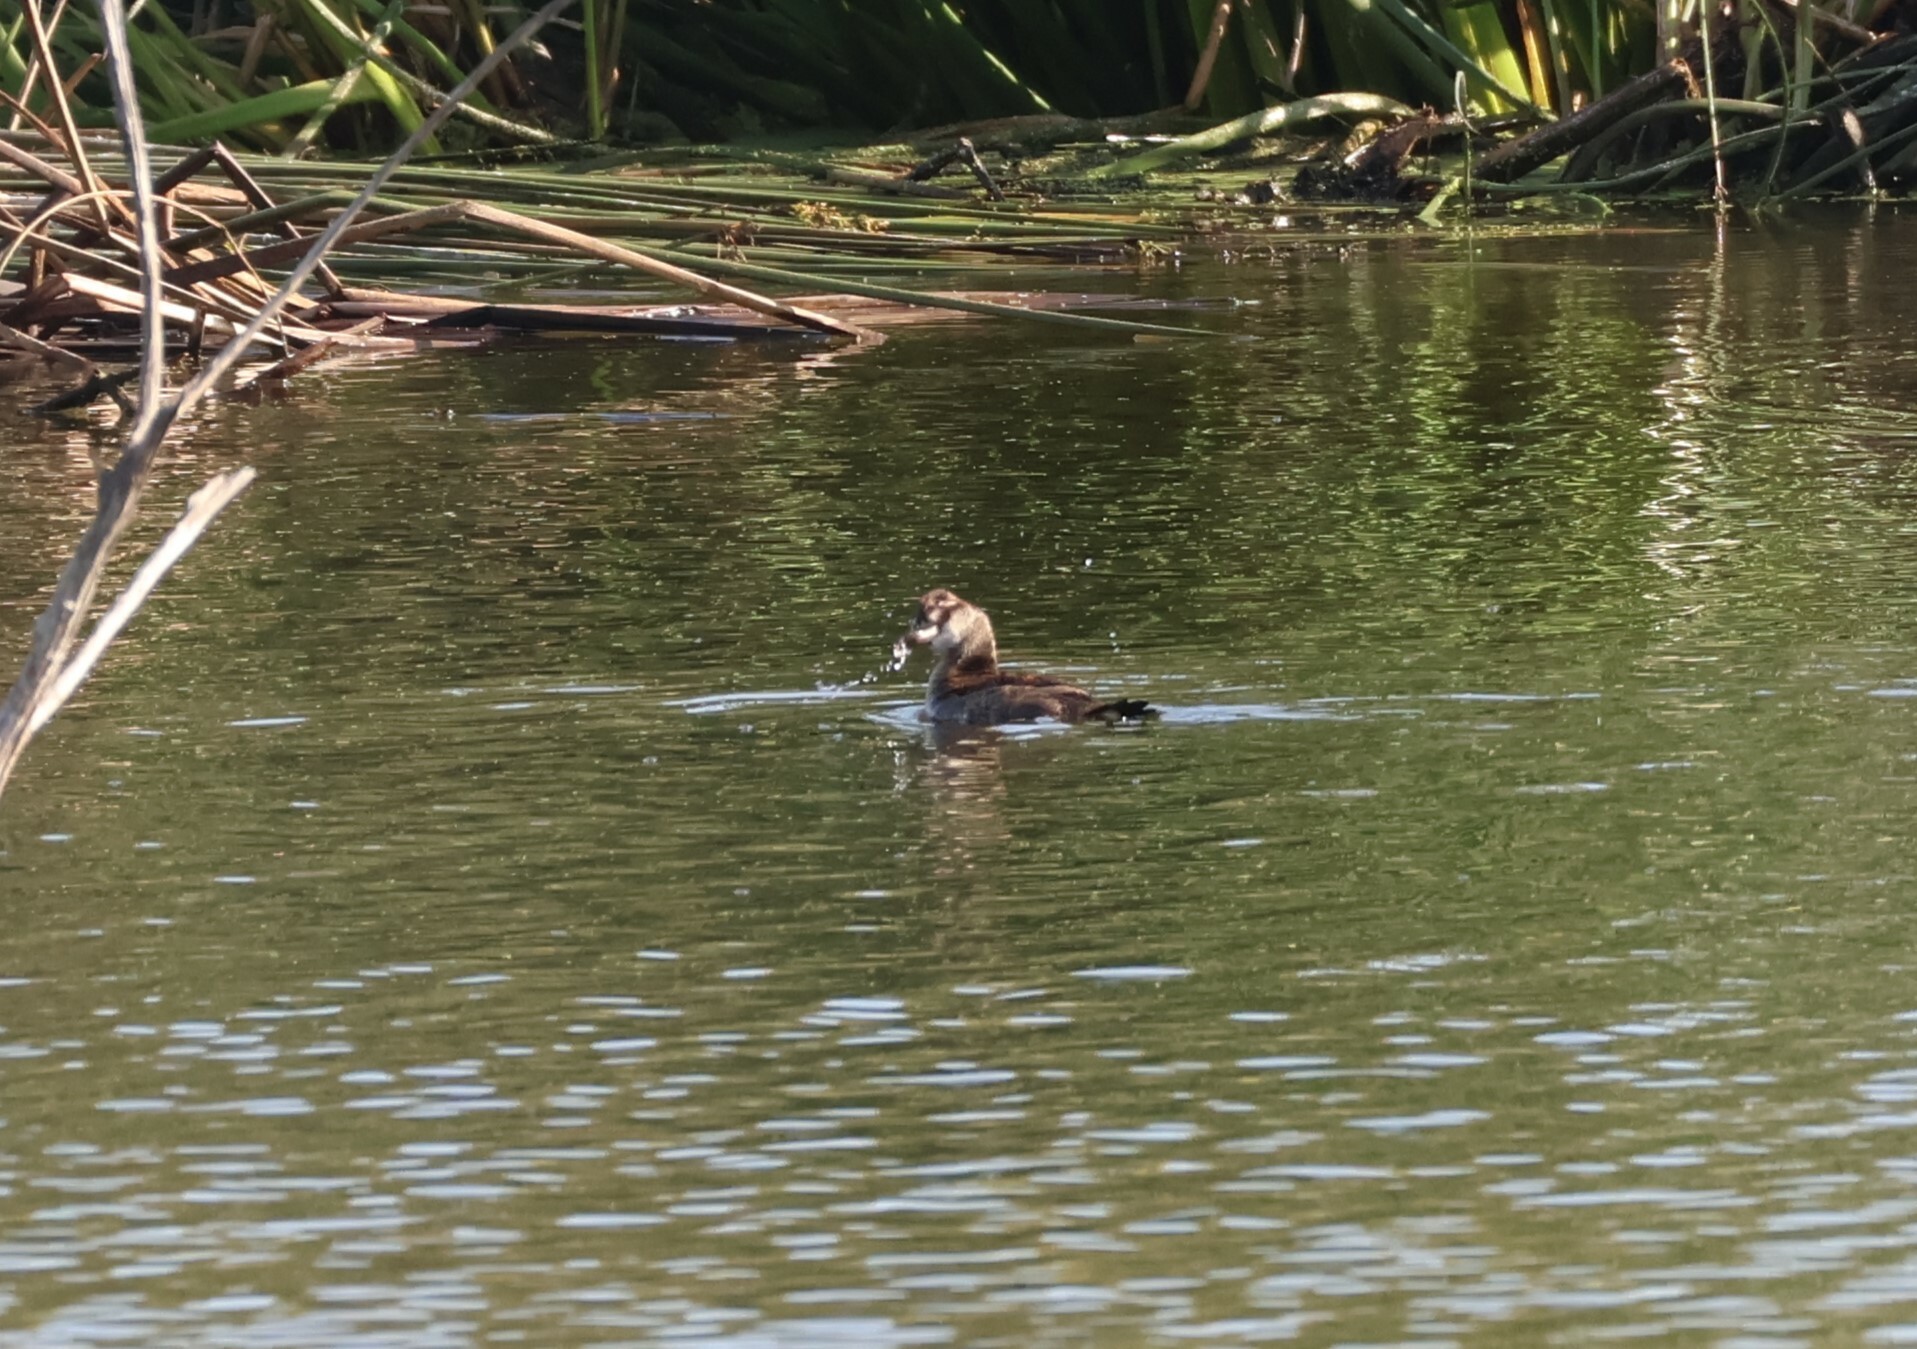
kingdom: Animalia
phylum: Chordata
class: Aves
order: Anseriformes
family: Anatidae
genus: Oxyura
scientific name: Oxyura jamaicensis
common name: Ruddy duck
